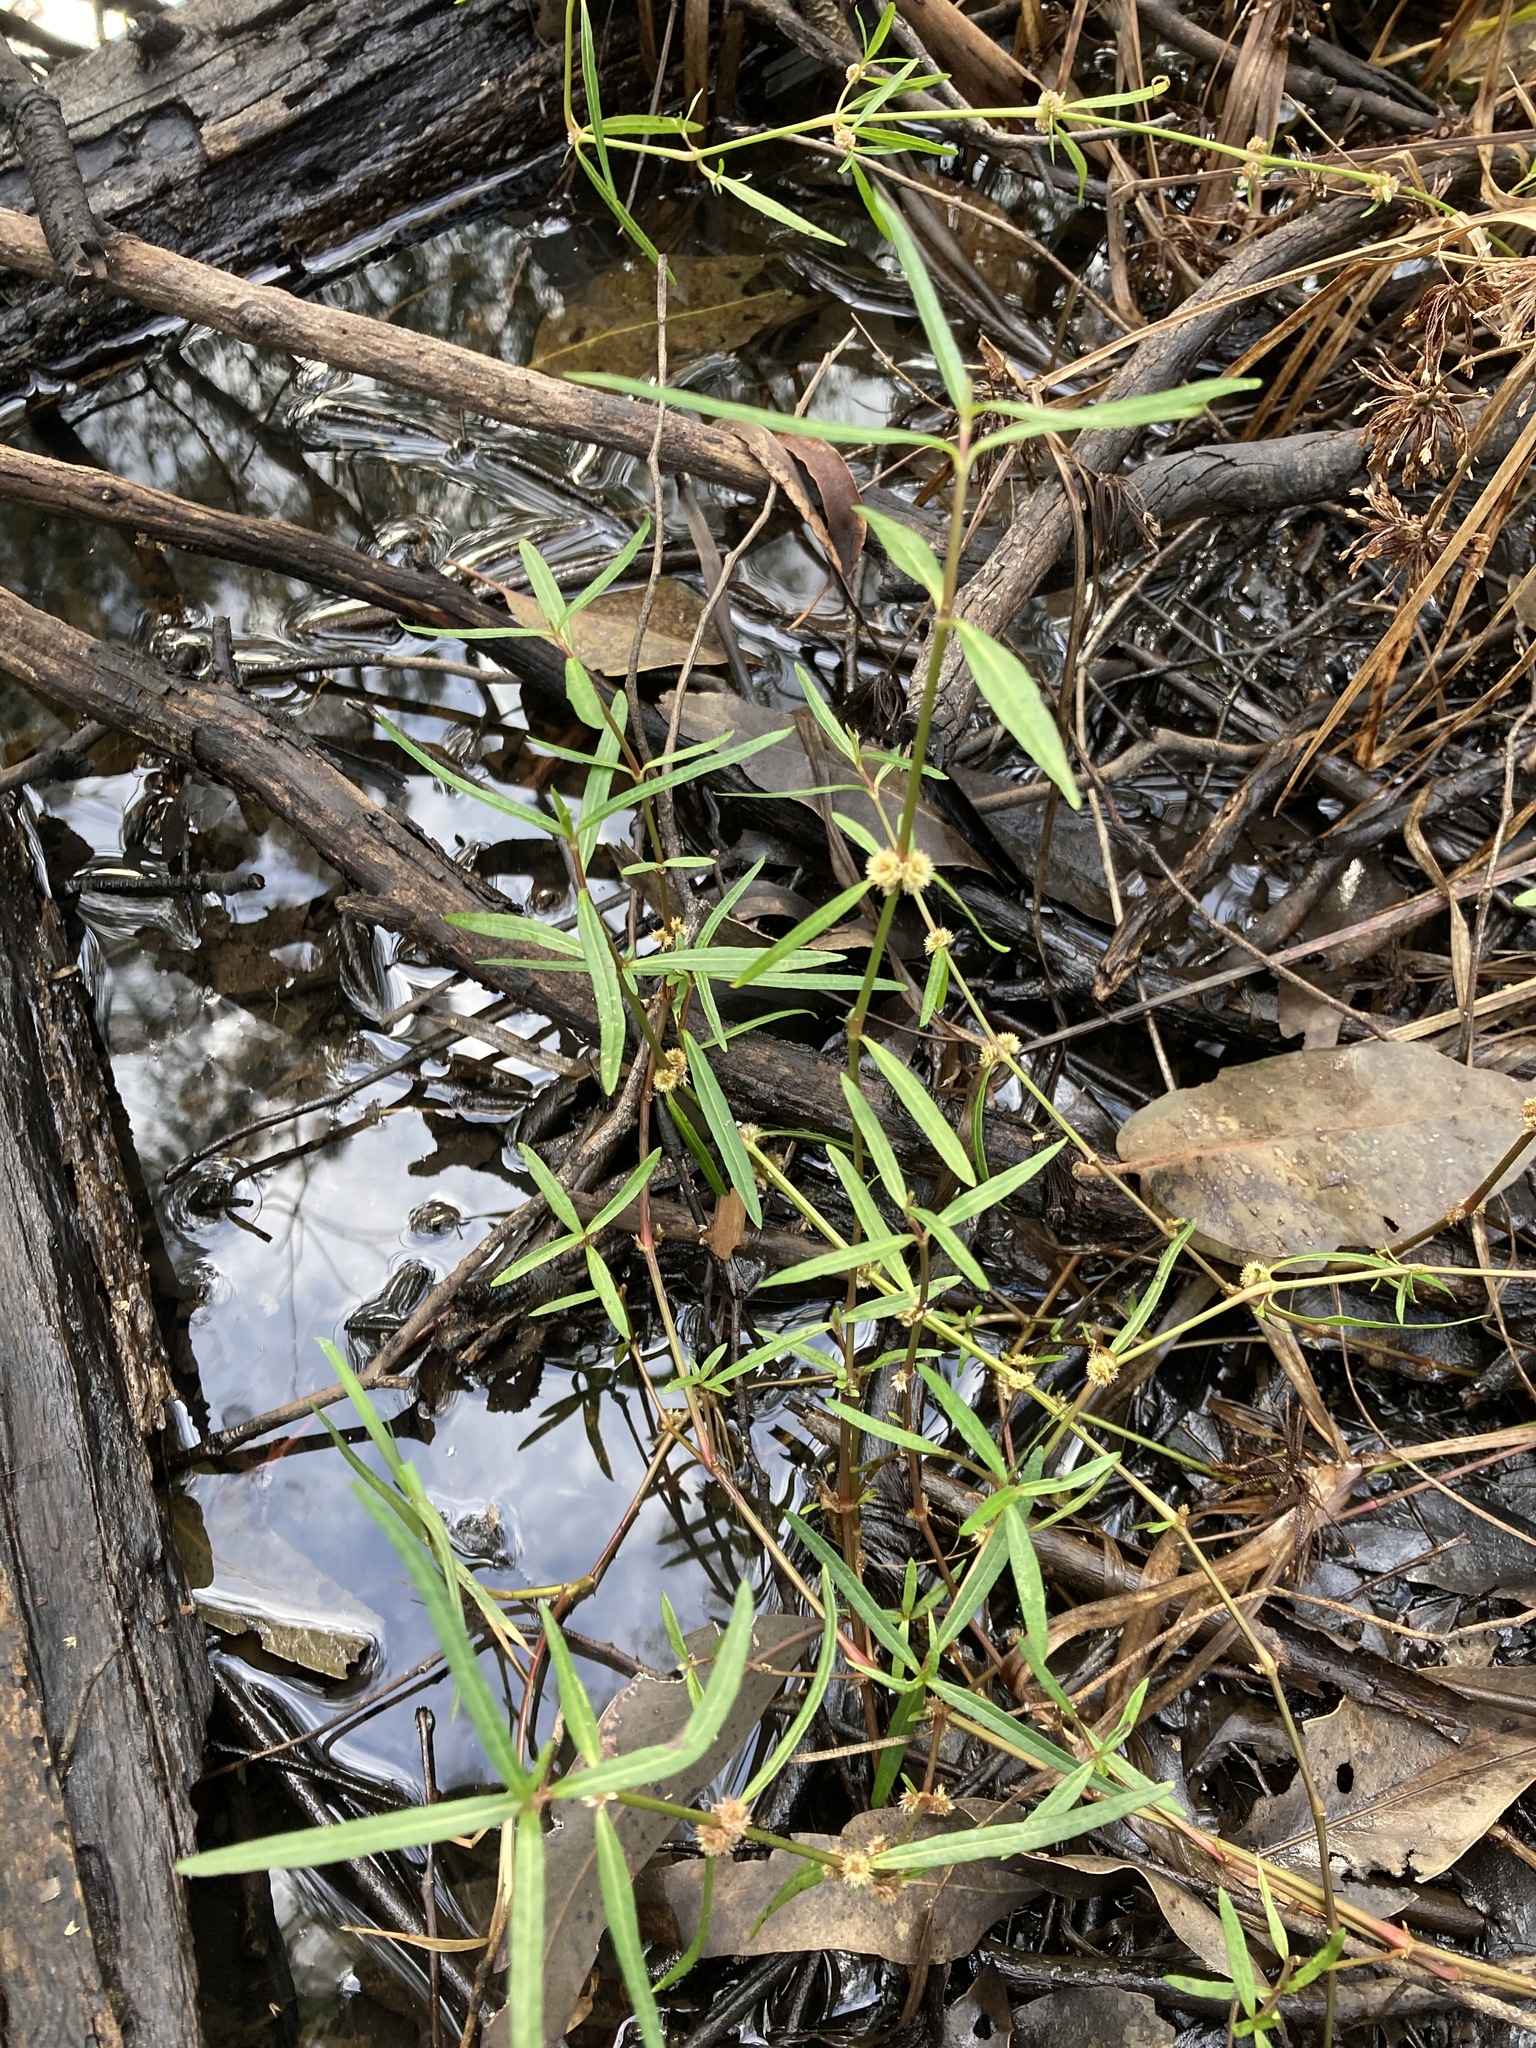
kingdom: Plantae
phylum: Tracheophyta
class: Magnoliopsida
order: Caryophyllales
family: Amaranthaceae
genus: Alternanthera
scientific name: Alternanthera denticulata
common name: Lesser joyweed
